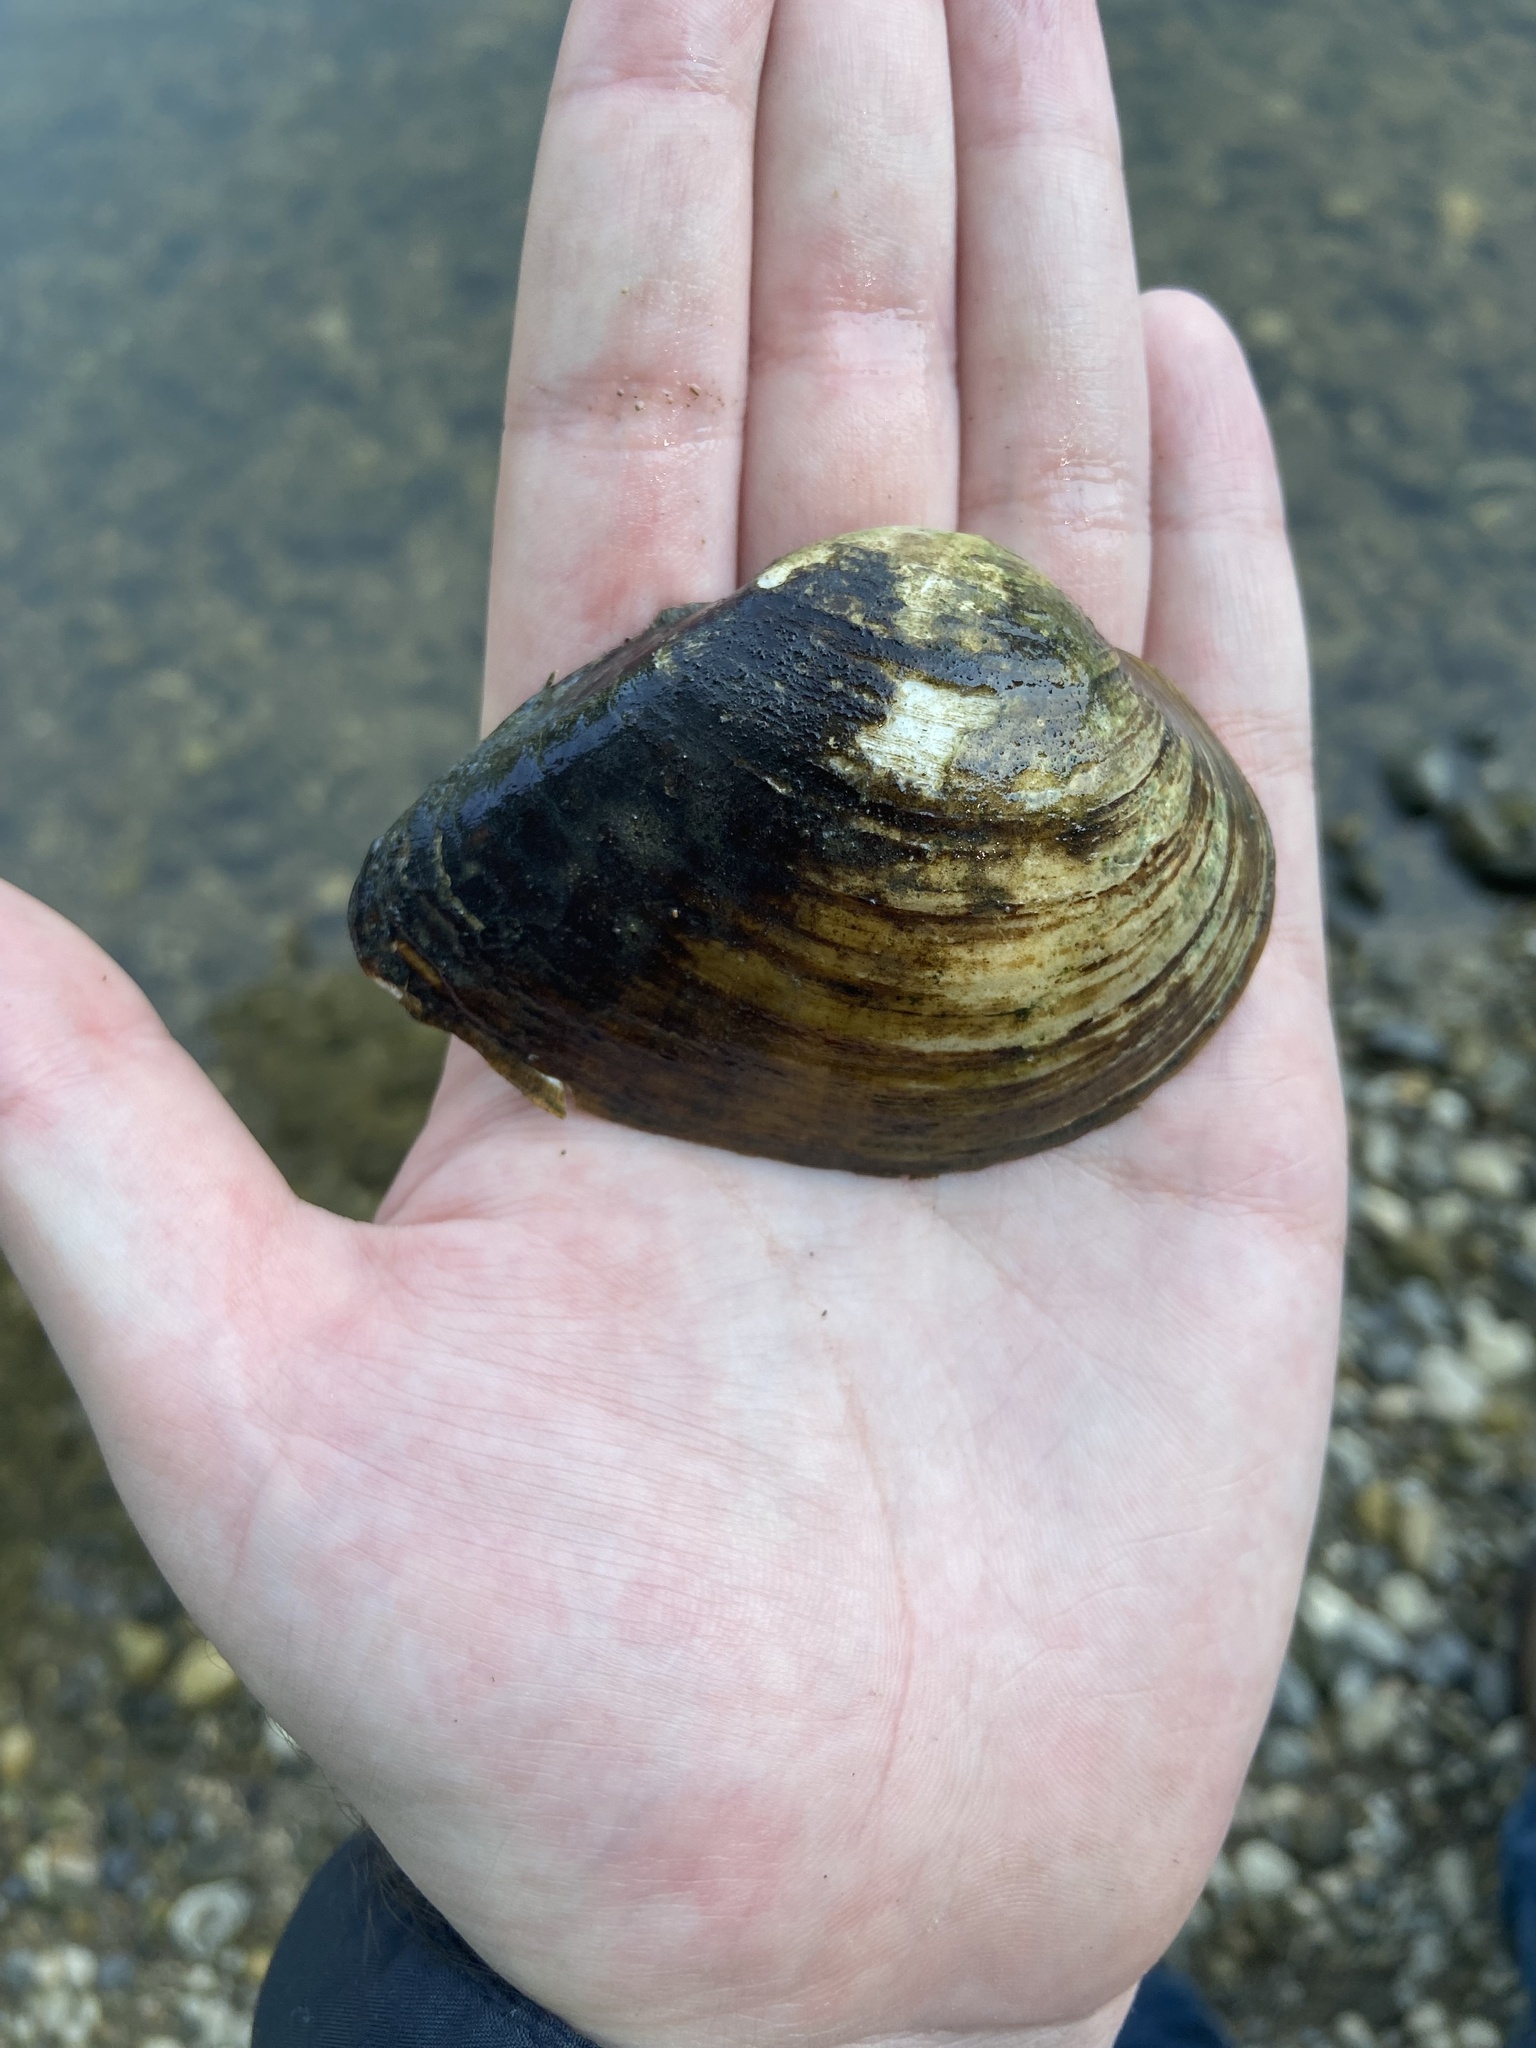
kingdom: Animalia
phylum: Mollusca
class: Bivalvia
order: Unionida
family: Unionidae
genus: Truncilla
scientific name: Truncilla truncata
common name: Deertoe
